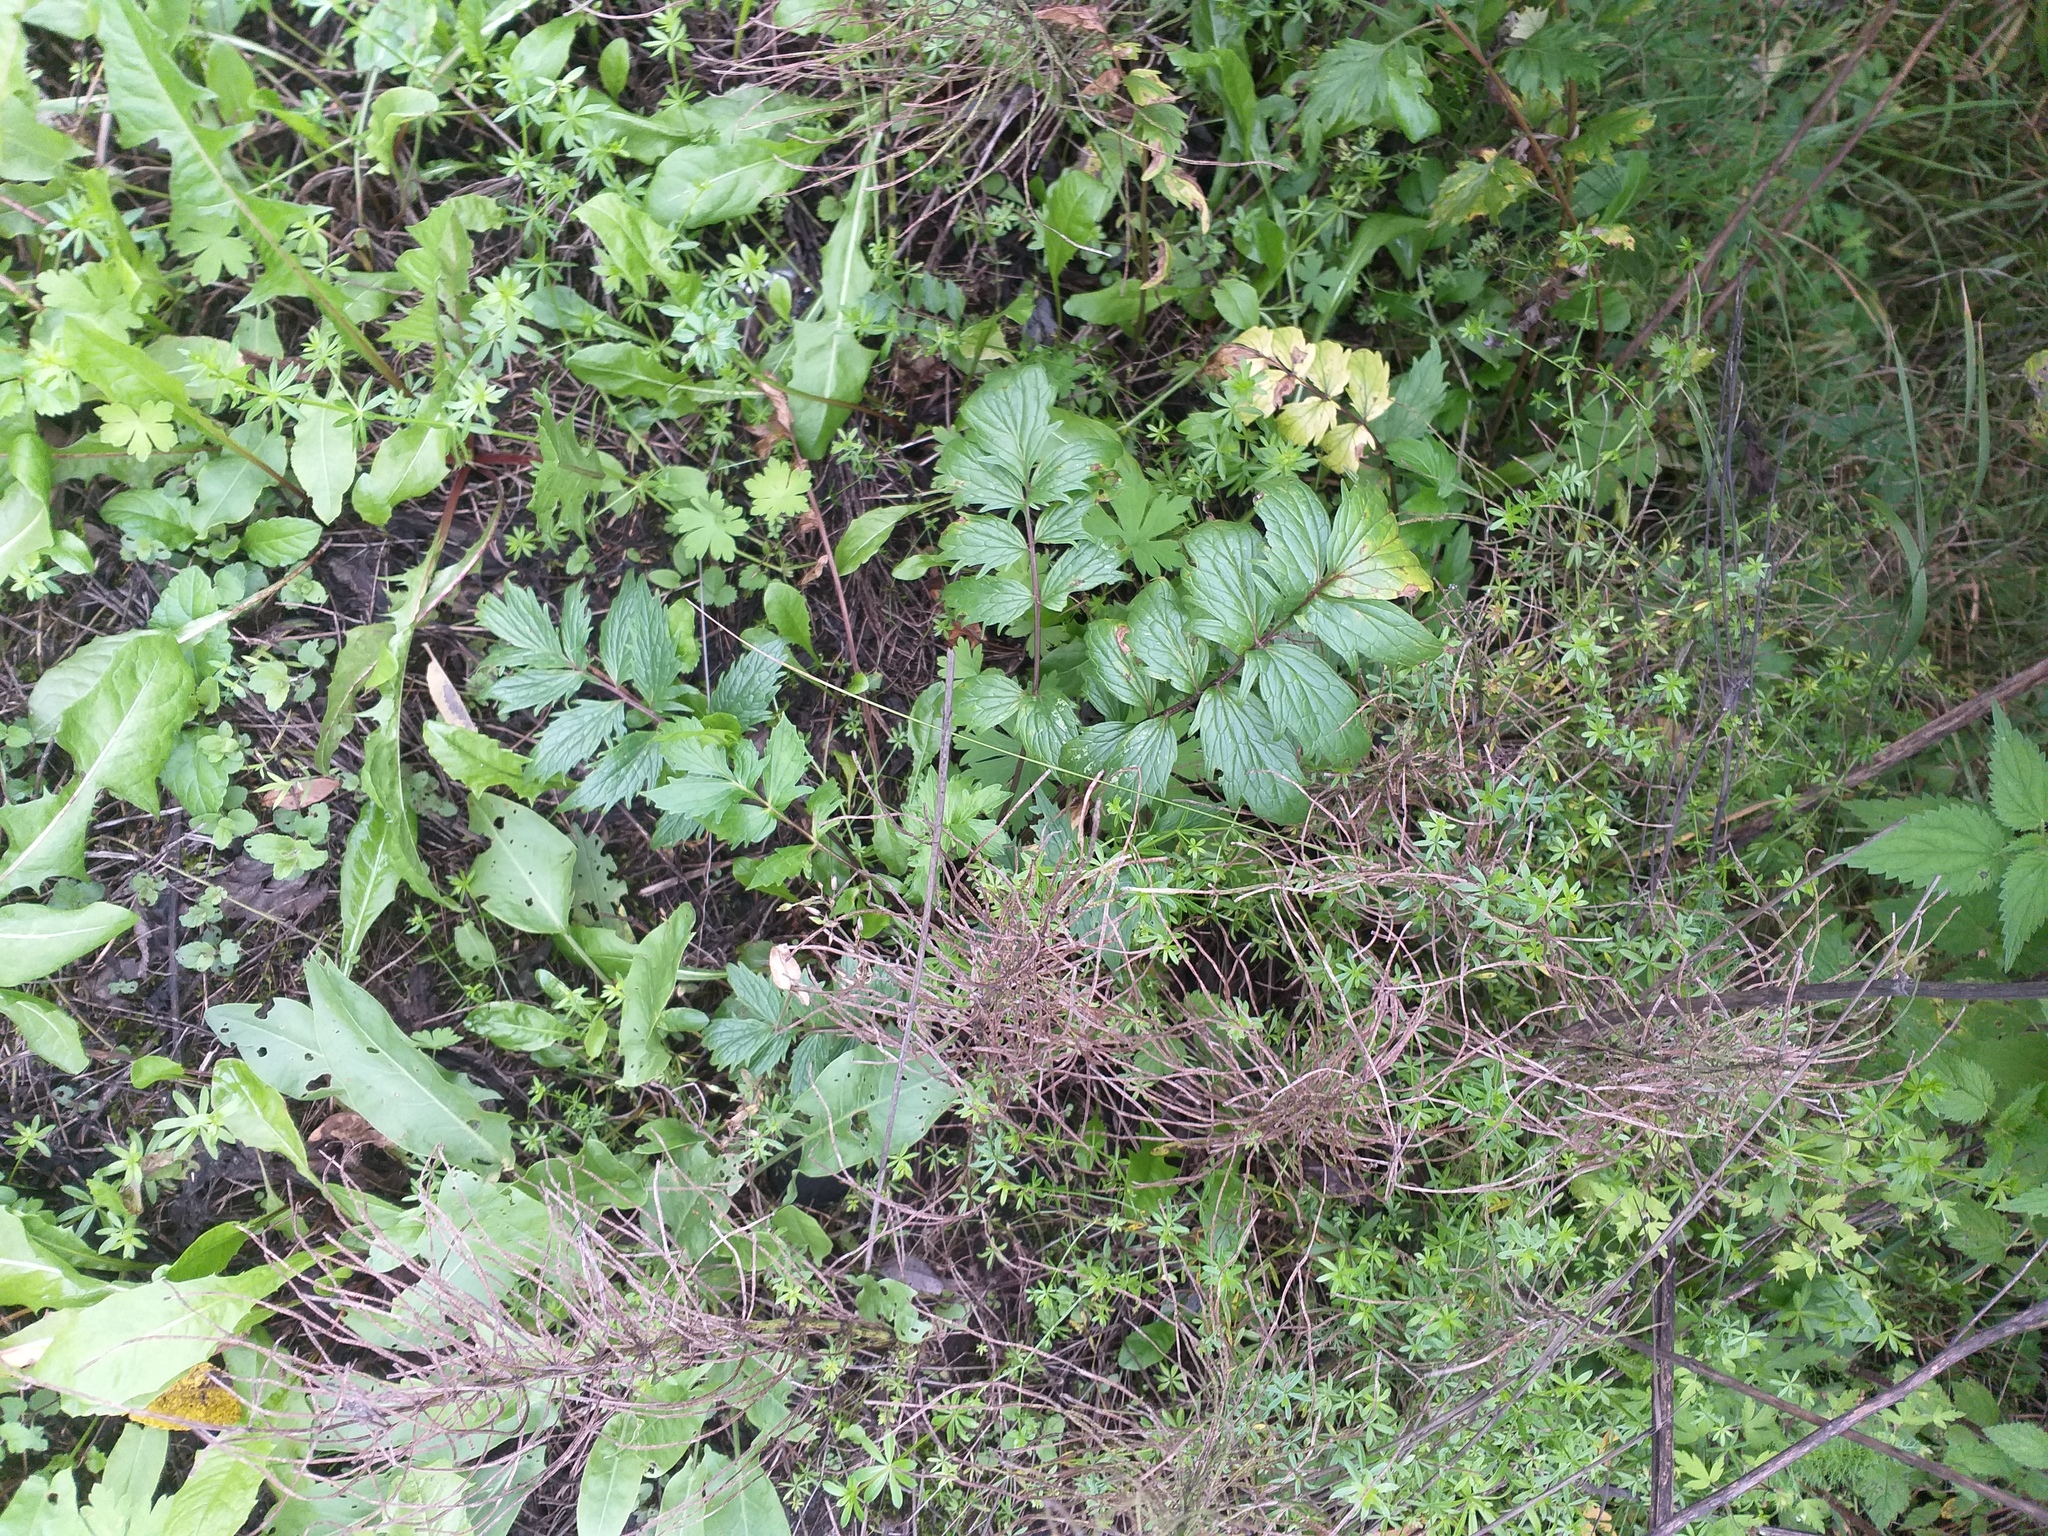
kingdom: Plantae
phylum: Tracheophyta
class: Magnoliopsida
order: Dipsacales
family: Caprifoliaceae
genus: Valeriana
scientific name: Valeriana officinalis
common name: Common valerian
